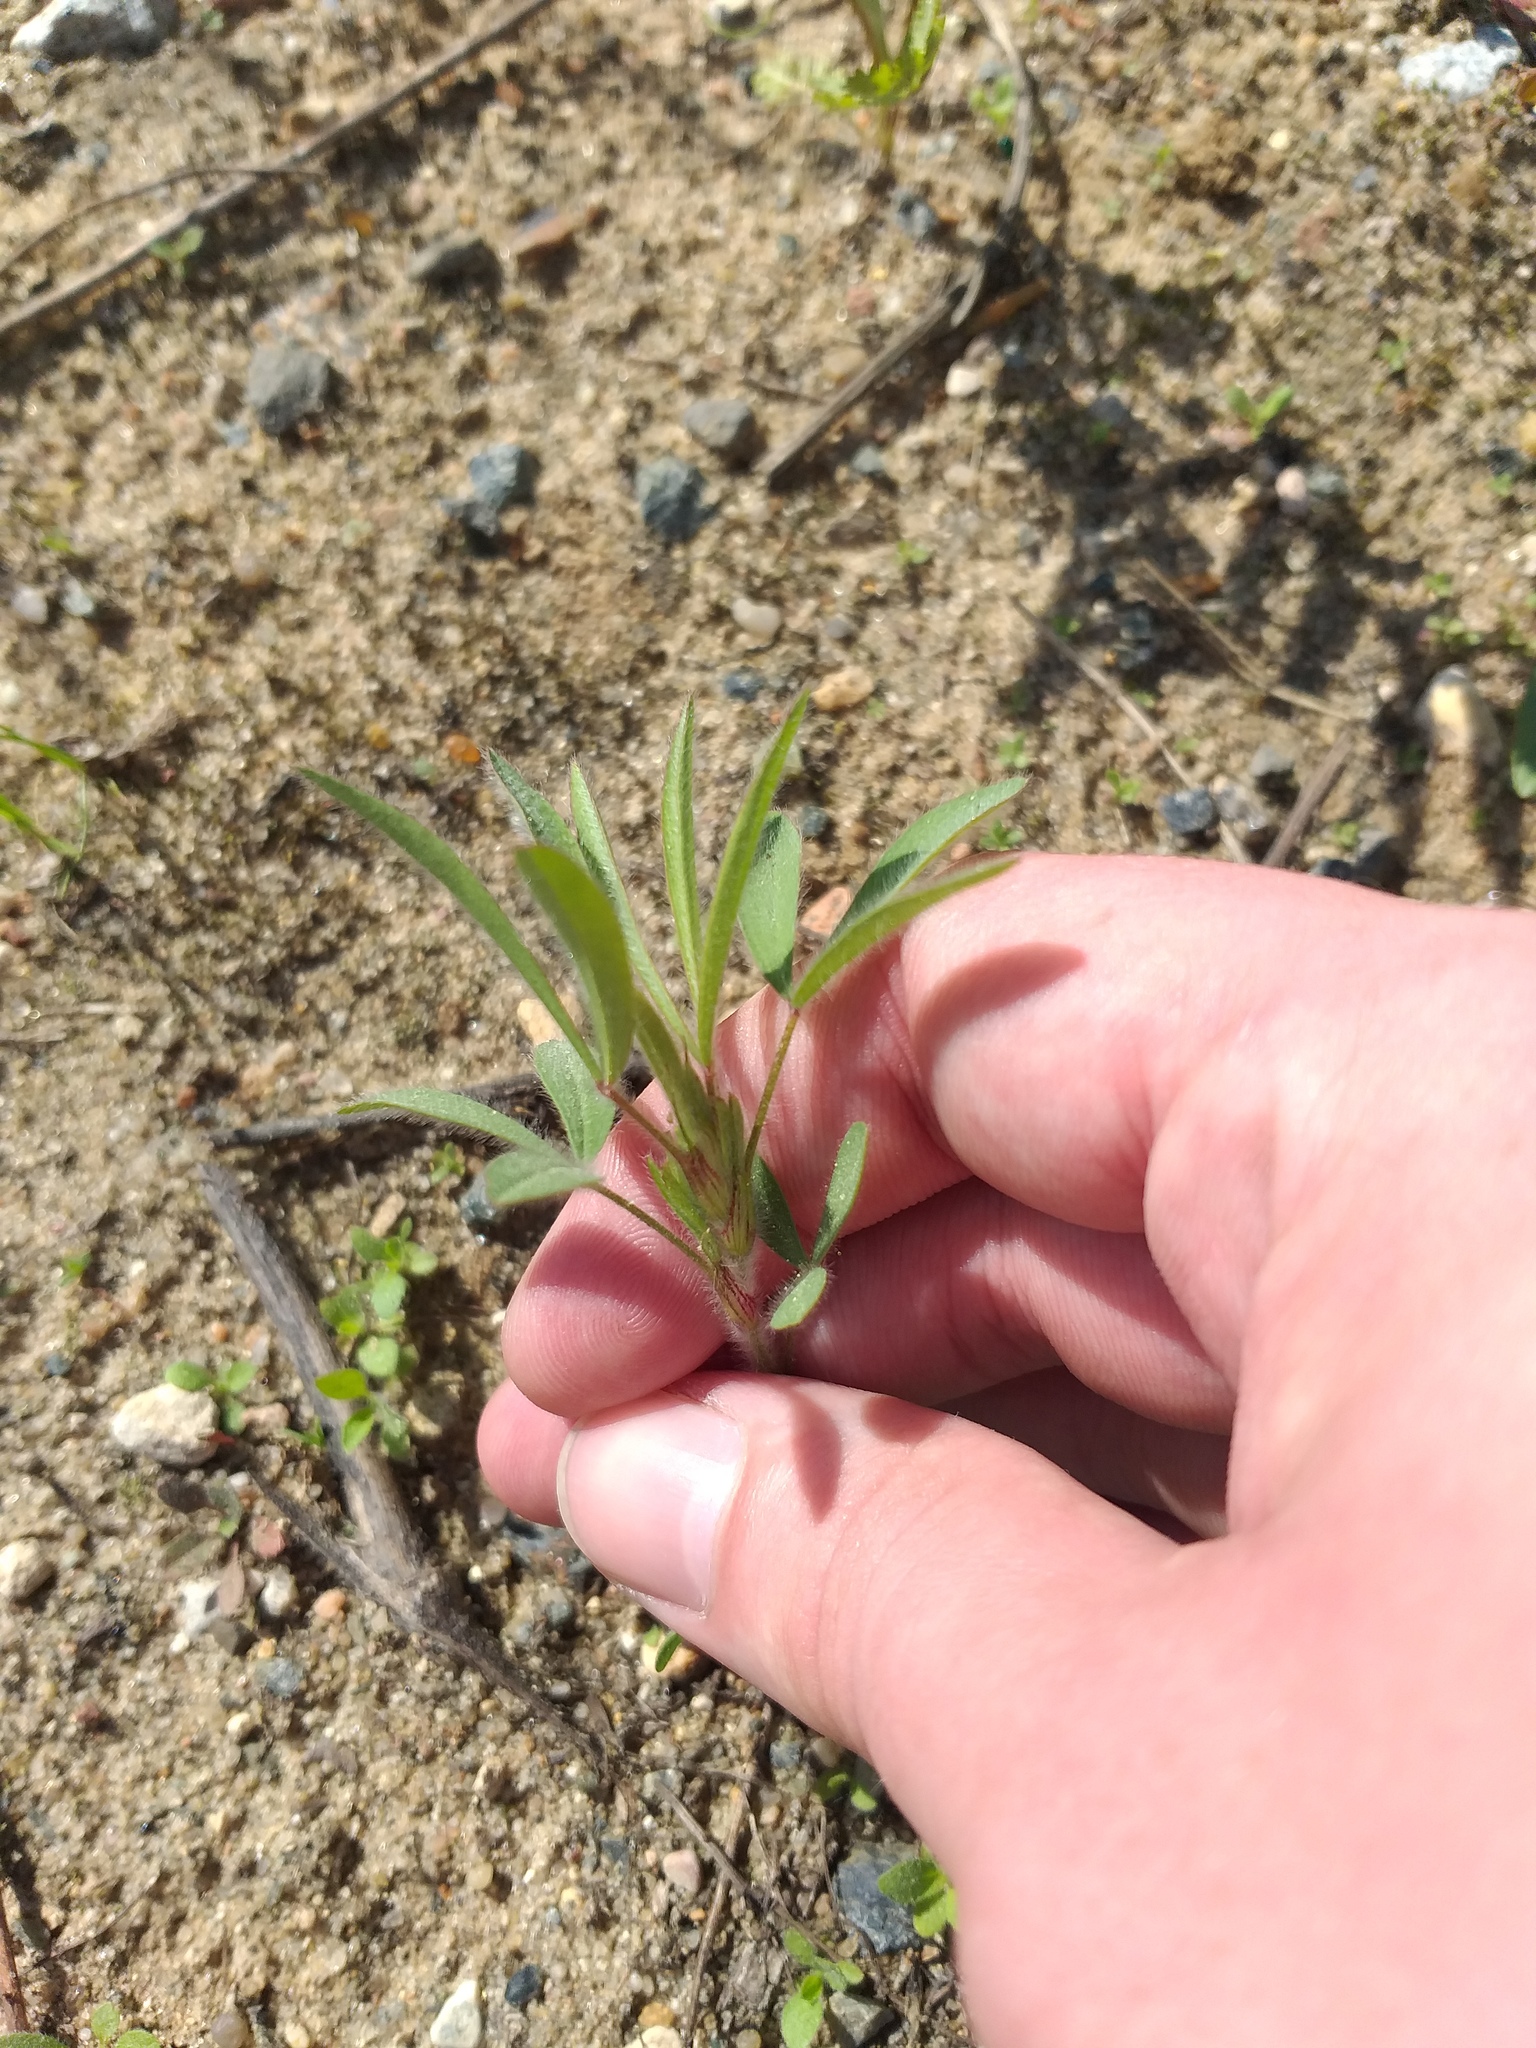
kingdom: Plantae
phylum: Tracheophyta
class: Magnoliopsida
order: Fabales
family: Fabaceae
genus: Trifolium
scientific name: Trifolium arvense
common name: Hare's-foot clover
